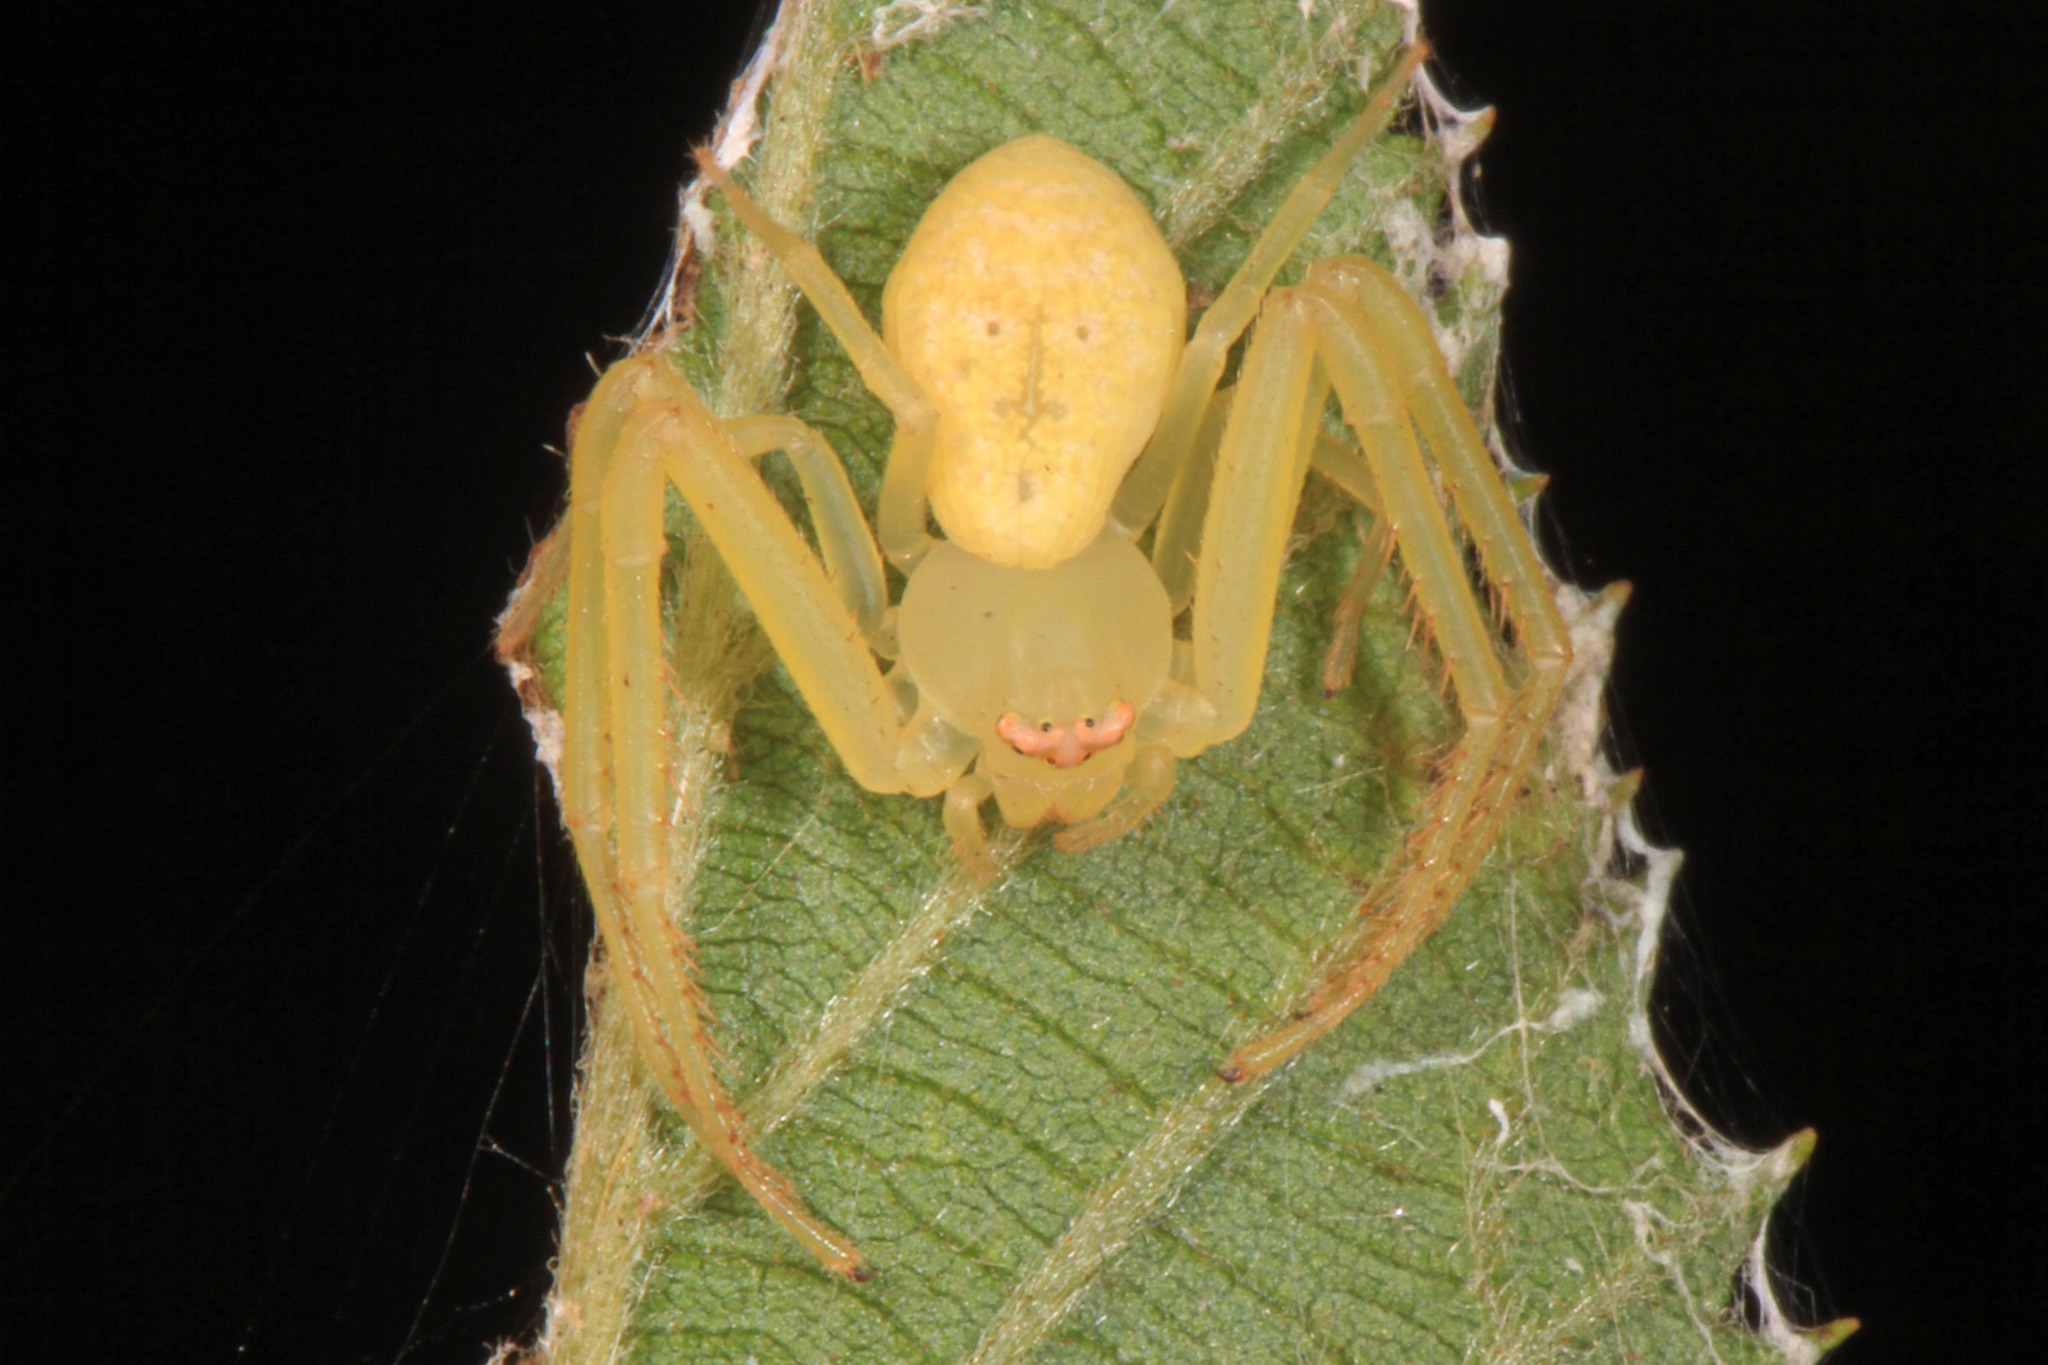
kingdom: Animalia
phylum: Arthropoda
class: Arachnida
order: Araneae
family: Thomisidae
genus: Misumessus
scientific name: Misumessus oblongus
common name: American green crab spider
